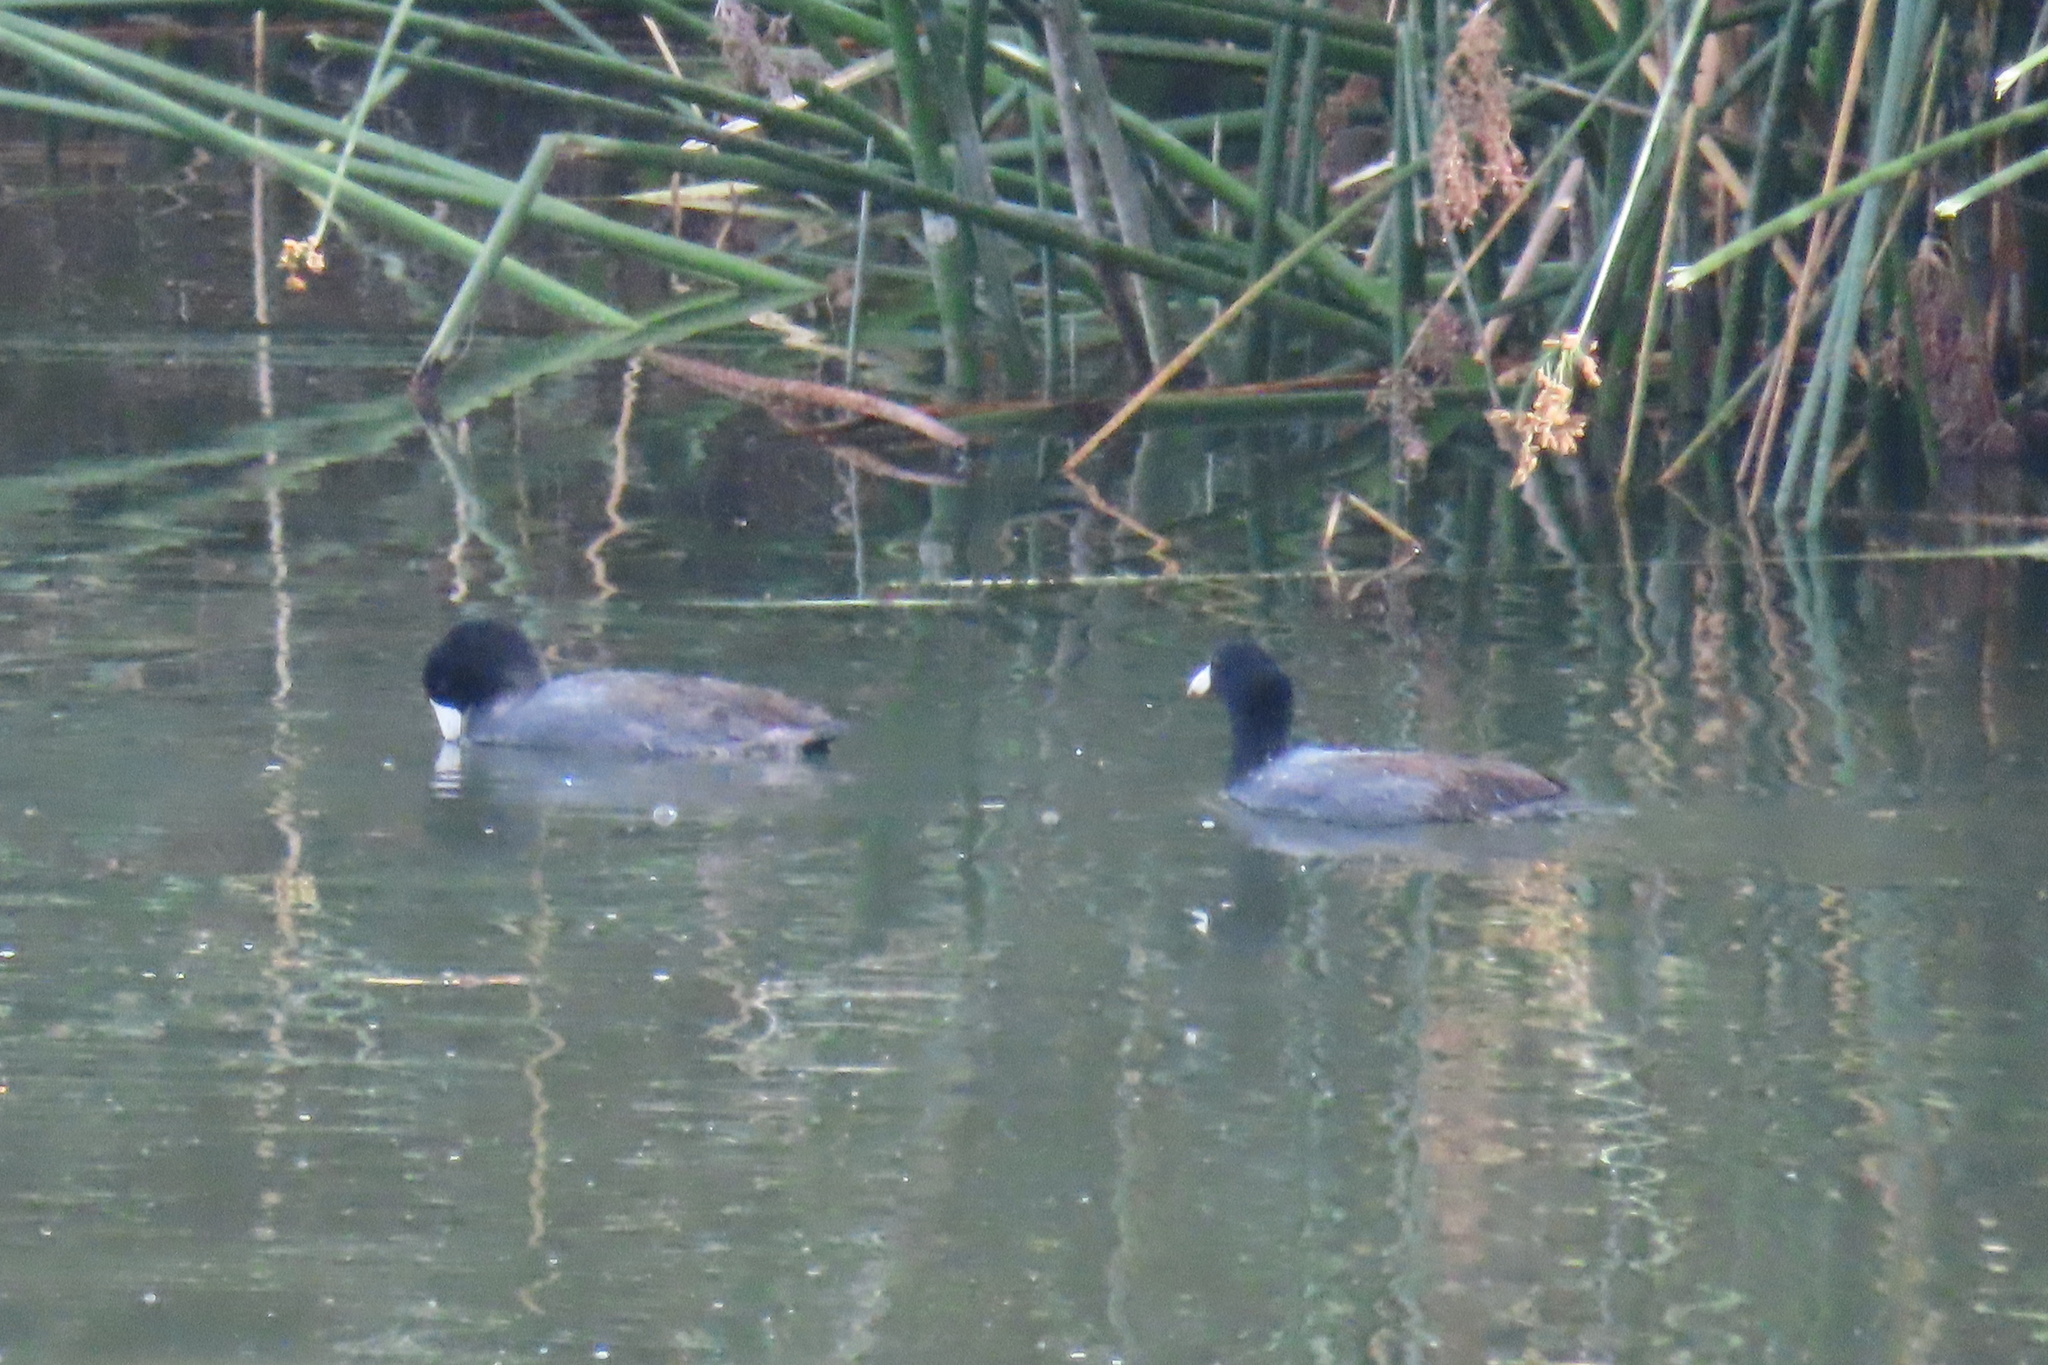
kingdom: Animalia
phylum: Chordata
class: Aves
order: Gruiformes
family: Rallidae
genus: Fulica
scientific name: Fulica americana
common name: American coot
